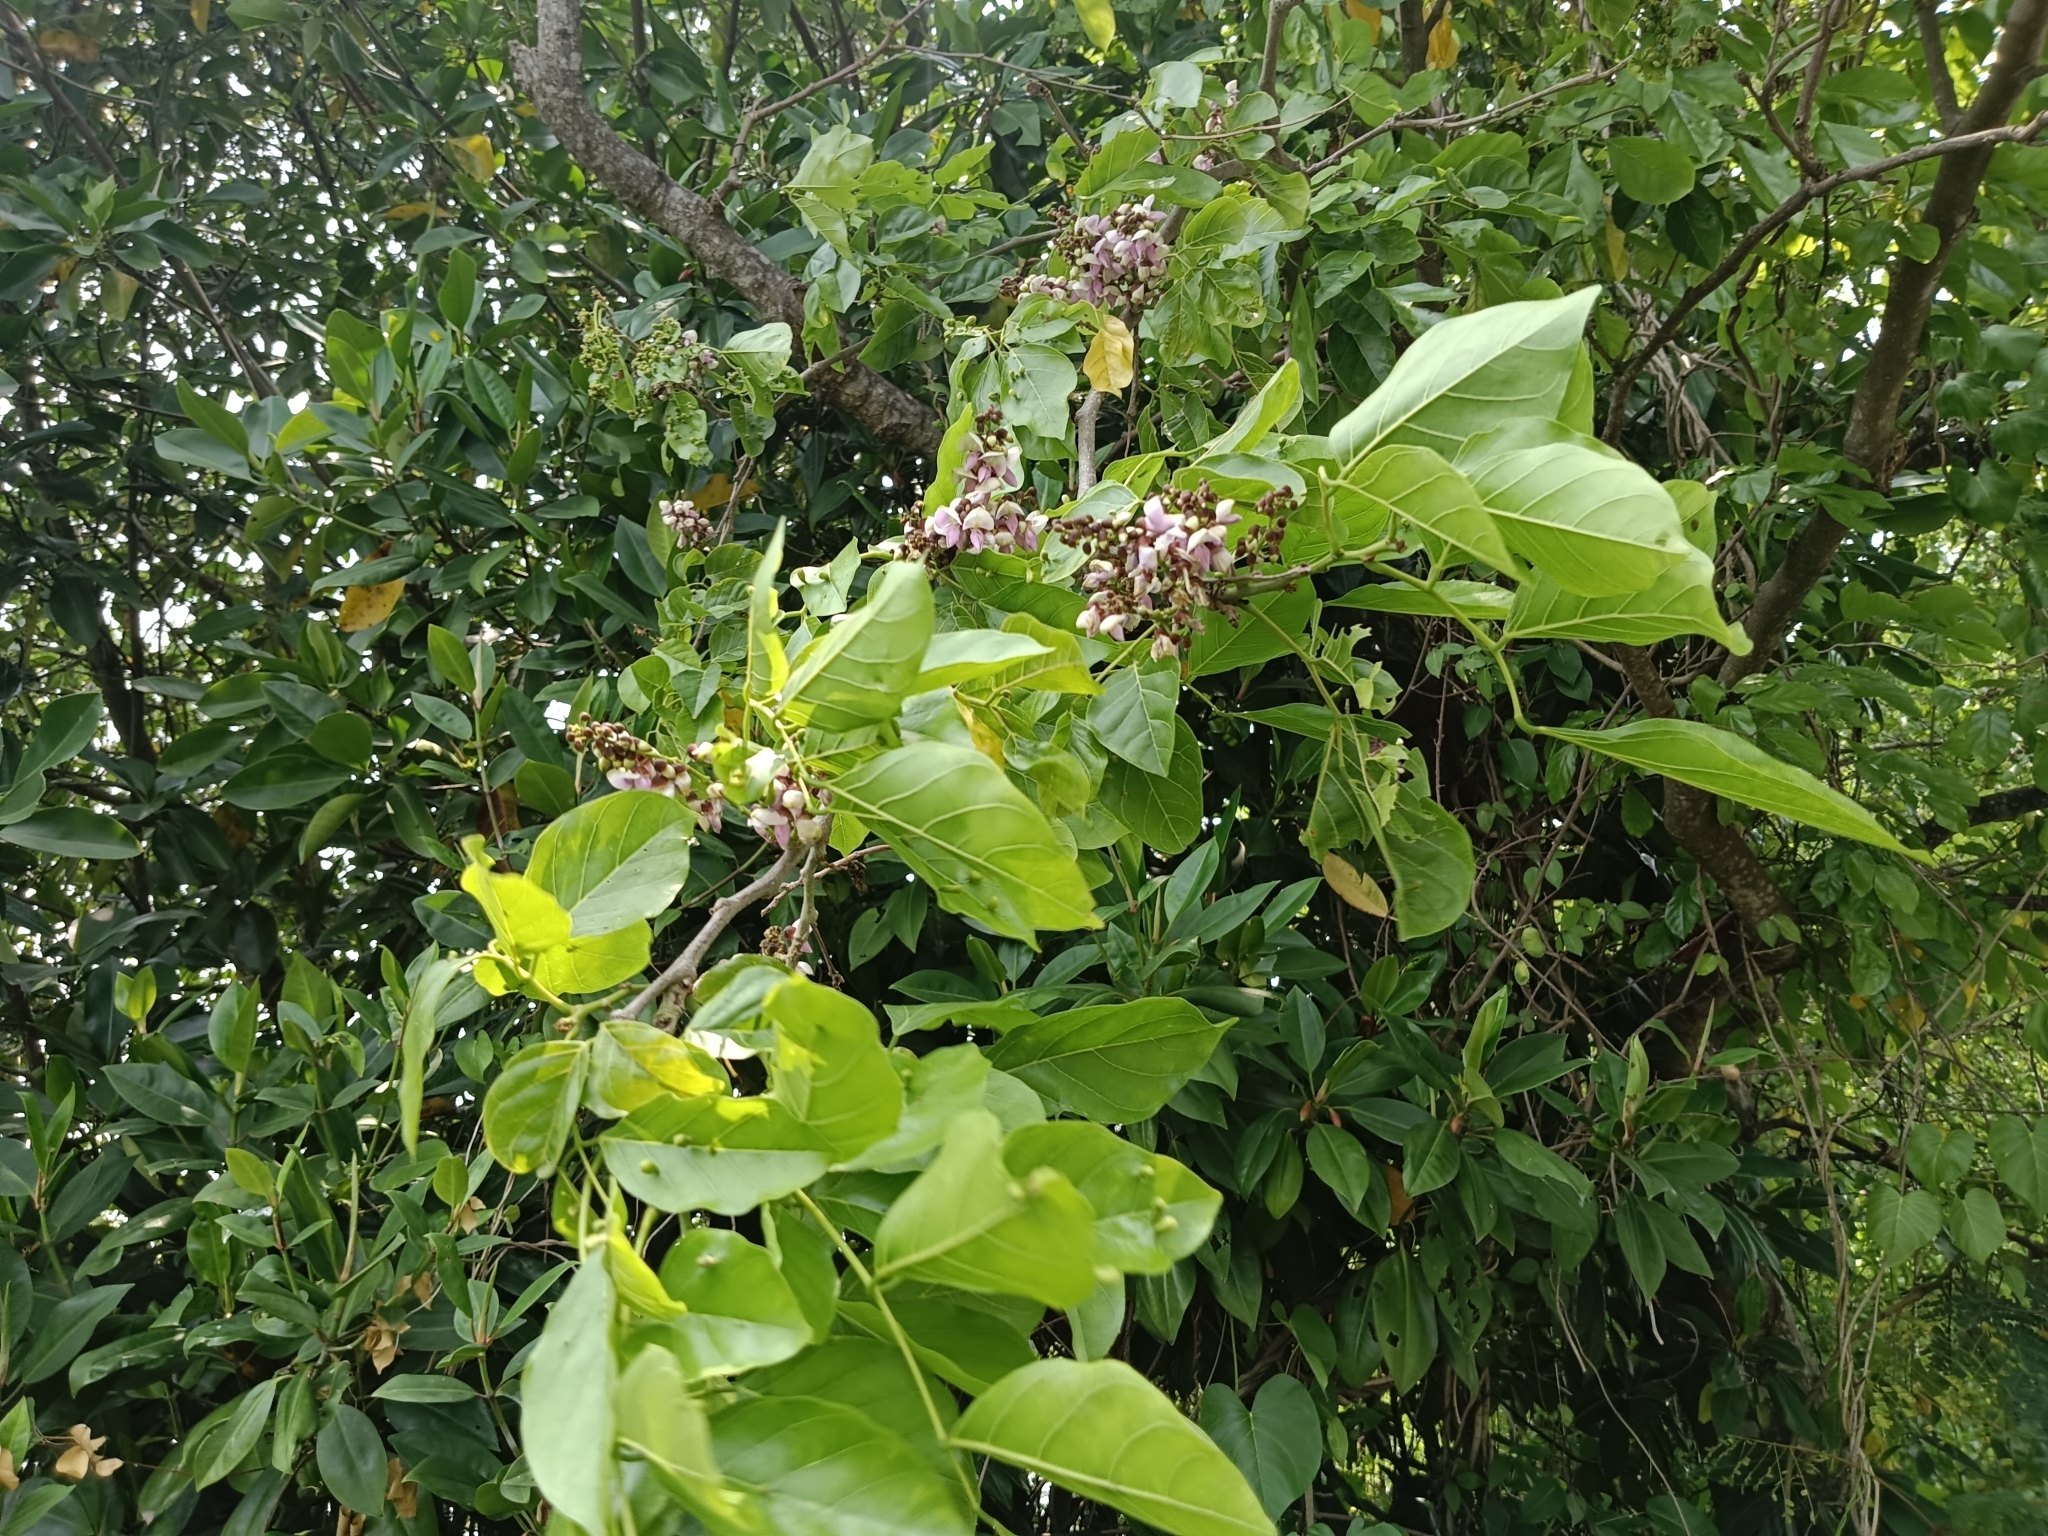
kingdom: Plantae
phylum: Tracheophyta
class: Magnoliopsida
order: Fabales
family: Fabaceae
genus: Pongamia
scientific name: Pongamia pinnata
